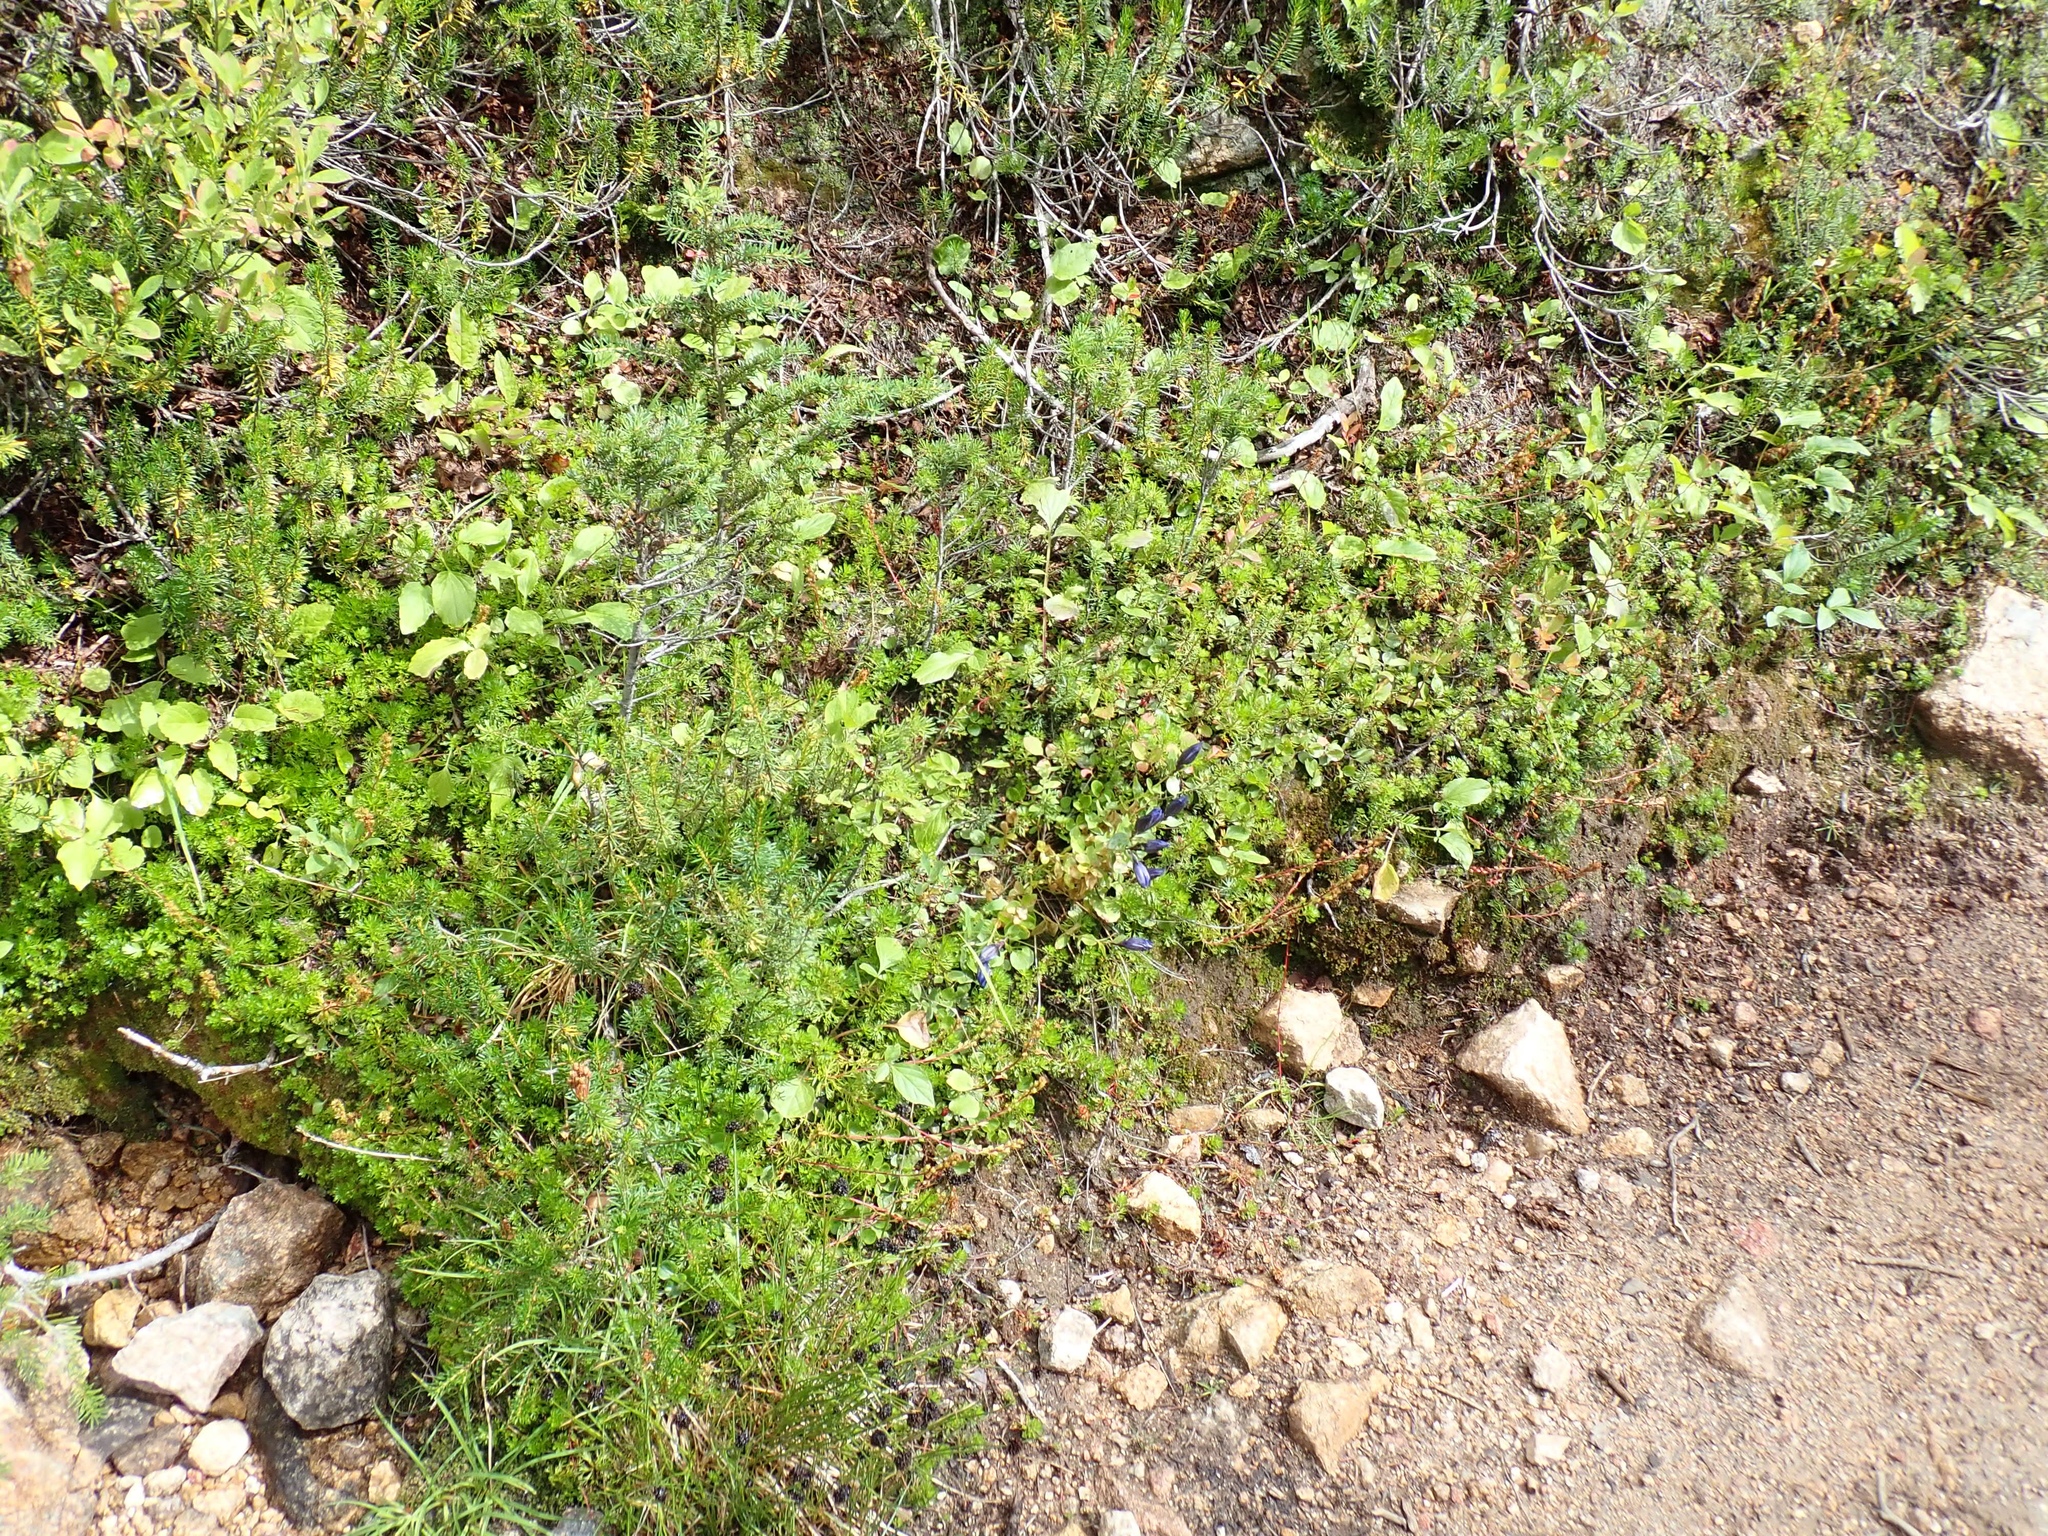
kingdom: Plantae
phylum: Tracheophyta
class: Magnoliopsida
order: Gentianales
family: Gentianaceae
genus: Gentiana
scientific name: Gentiana calycosa
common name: Rainier pleated gentian
